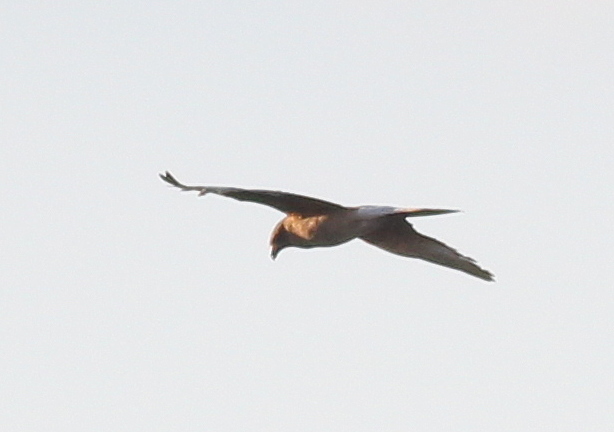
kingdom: Animalia
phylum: Chordata
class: Aves
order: Falconiformes
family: Falconidae
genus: Daptrius
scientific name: Daptrius
